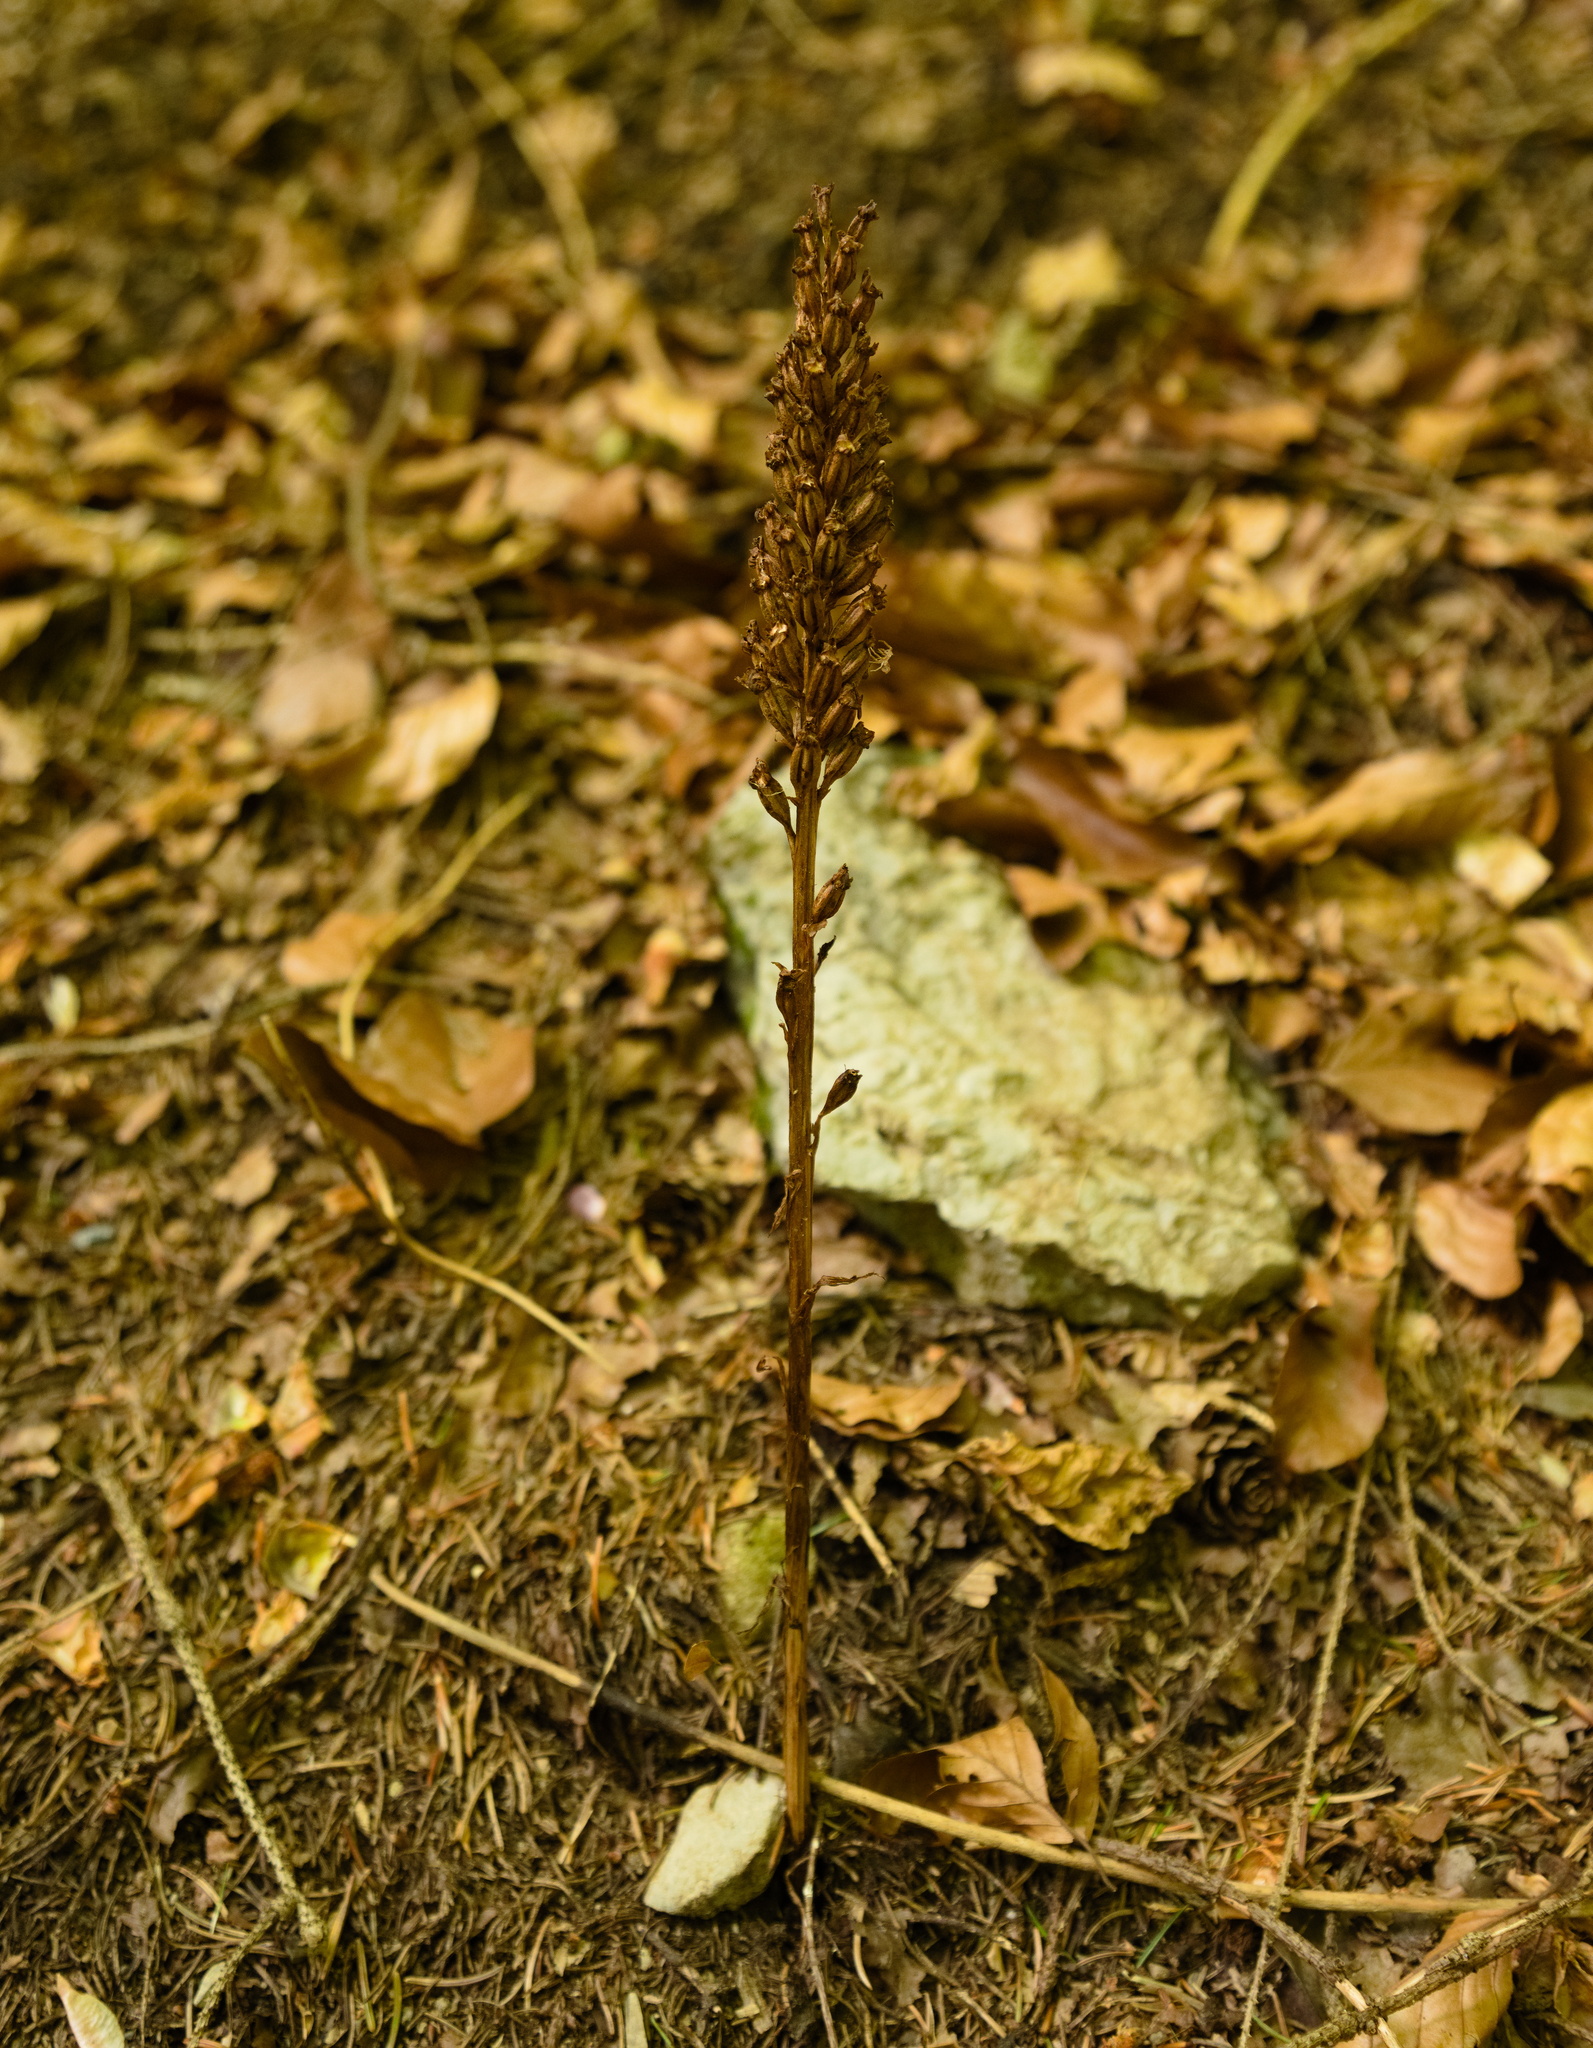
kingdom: Plantae
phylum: Tracheophyta
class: Liliopsida
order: Asparagales
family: Orchidaceae
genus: Neottia
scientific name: Neottia nidus-avis
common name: Bird's-nest orchid
